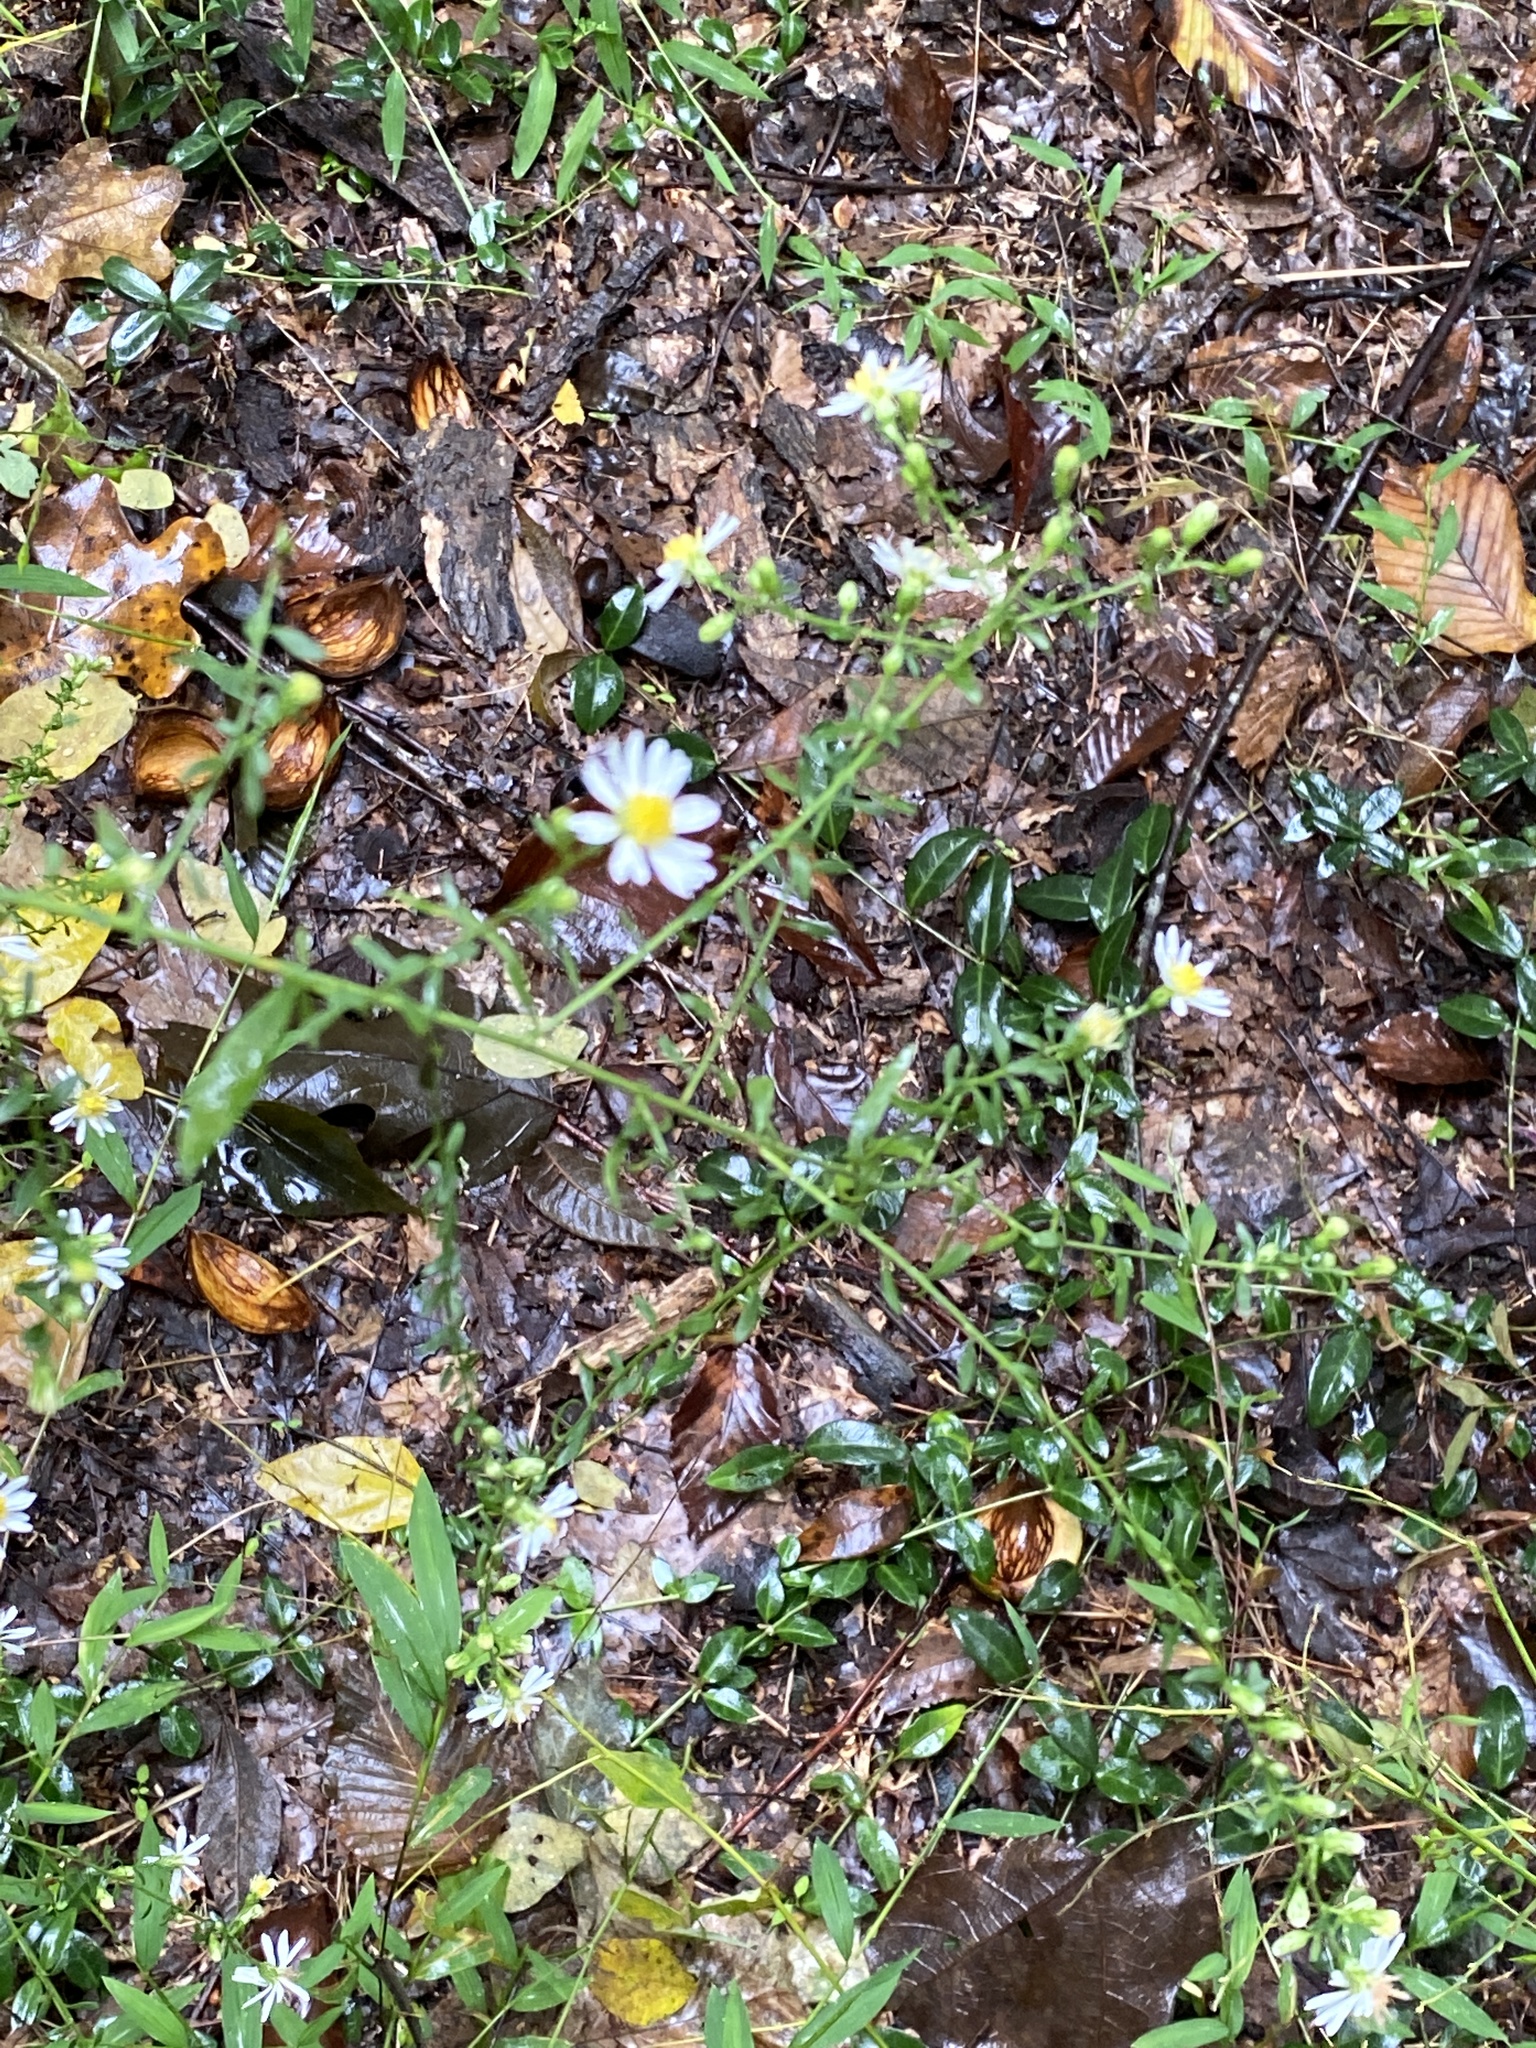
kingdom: Plantae
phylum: Tracheophyta
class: Magnoliopsida
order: Asterales
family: Asteraceae
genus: Symphyotrichum
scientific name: Symphyotrichum lateriflorum
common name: Calico aster
